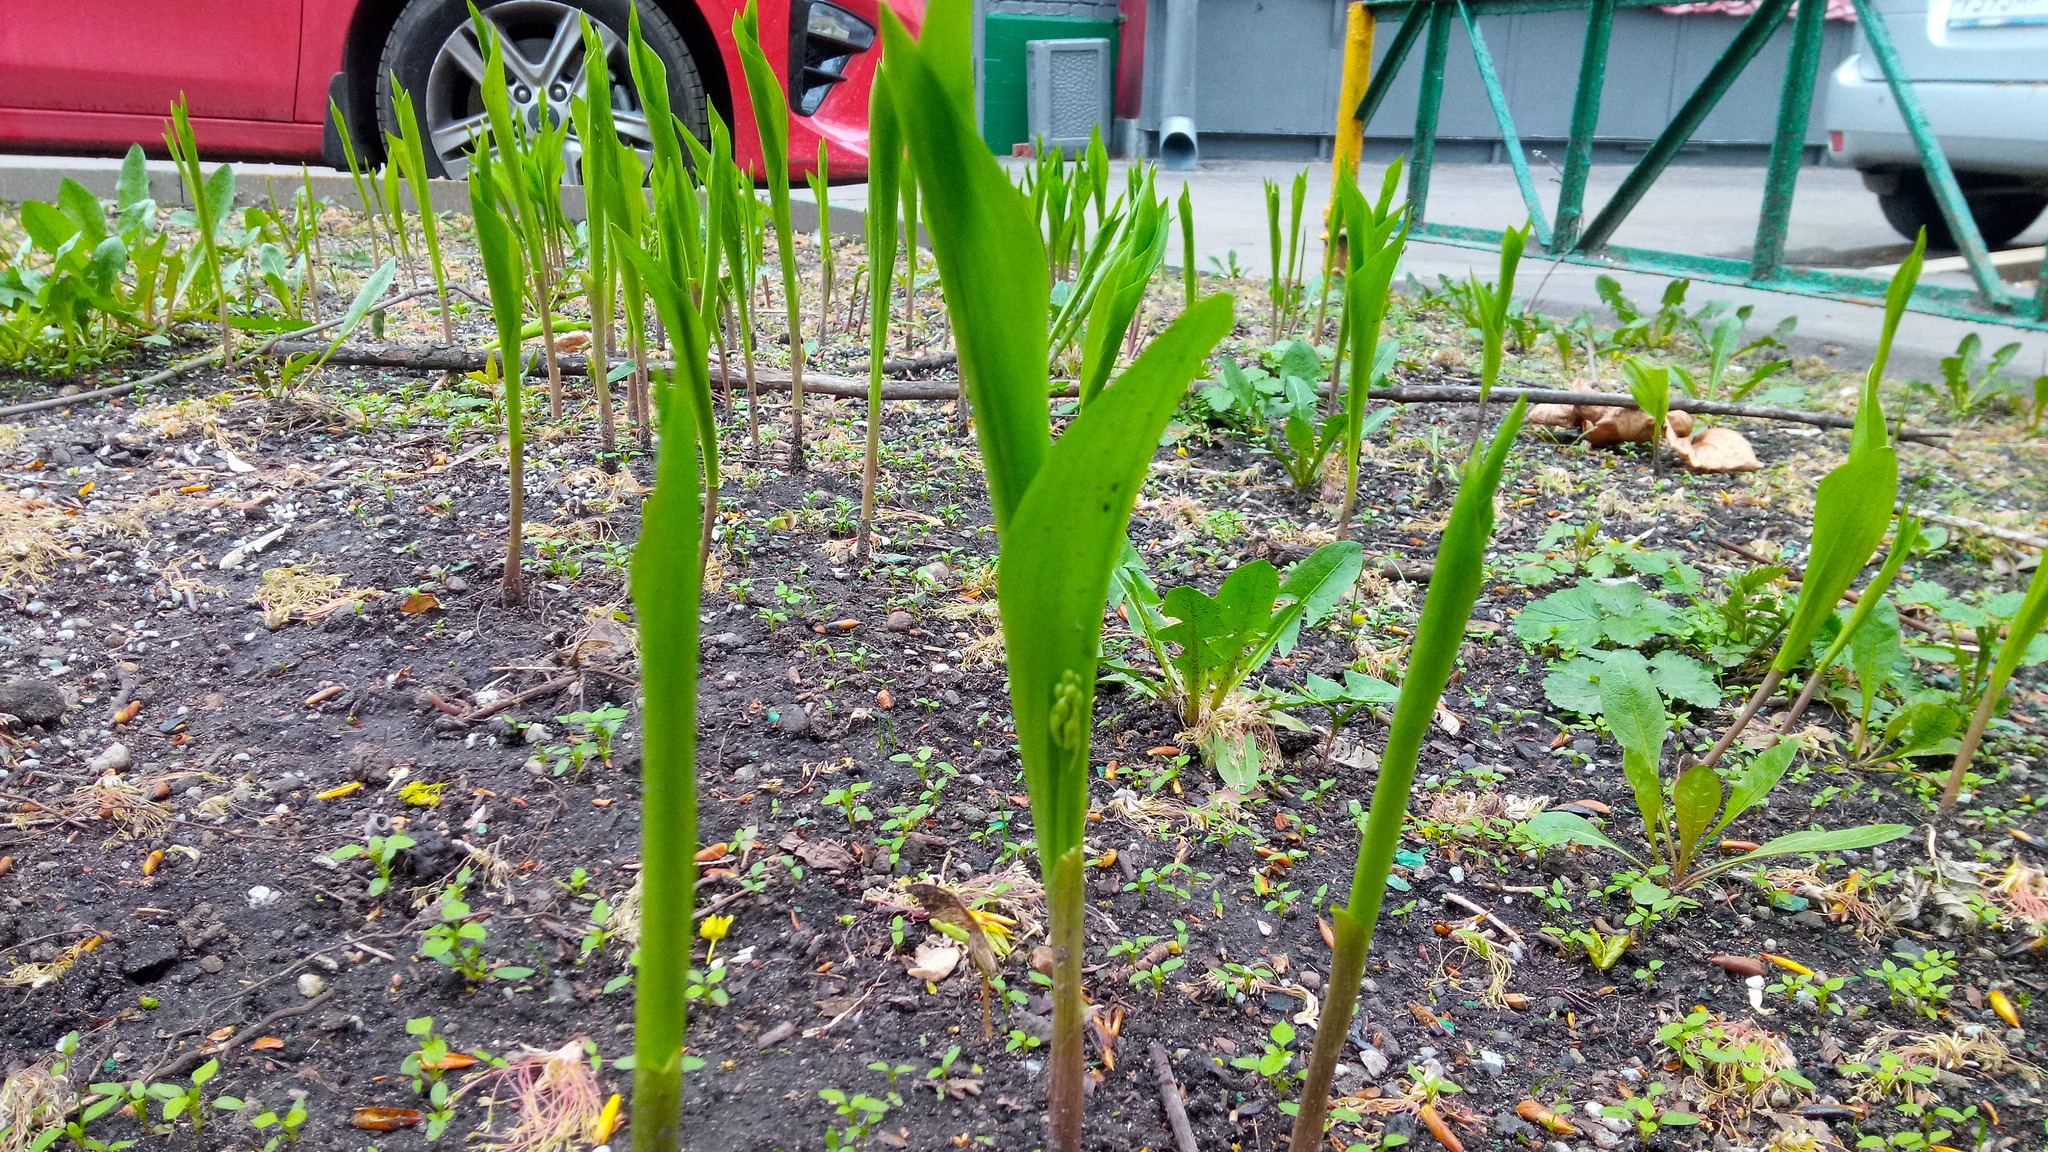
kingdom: Plantae
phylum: Tracheophyta
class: Liliopsida
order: Asparagales
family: Asparagaceae
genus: Convallaria
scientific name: Convallaria majalis
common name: Lily-of-the-valley
